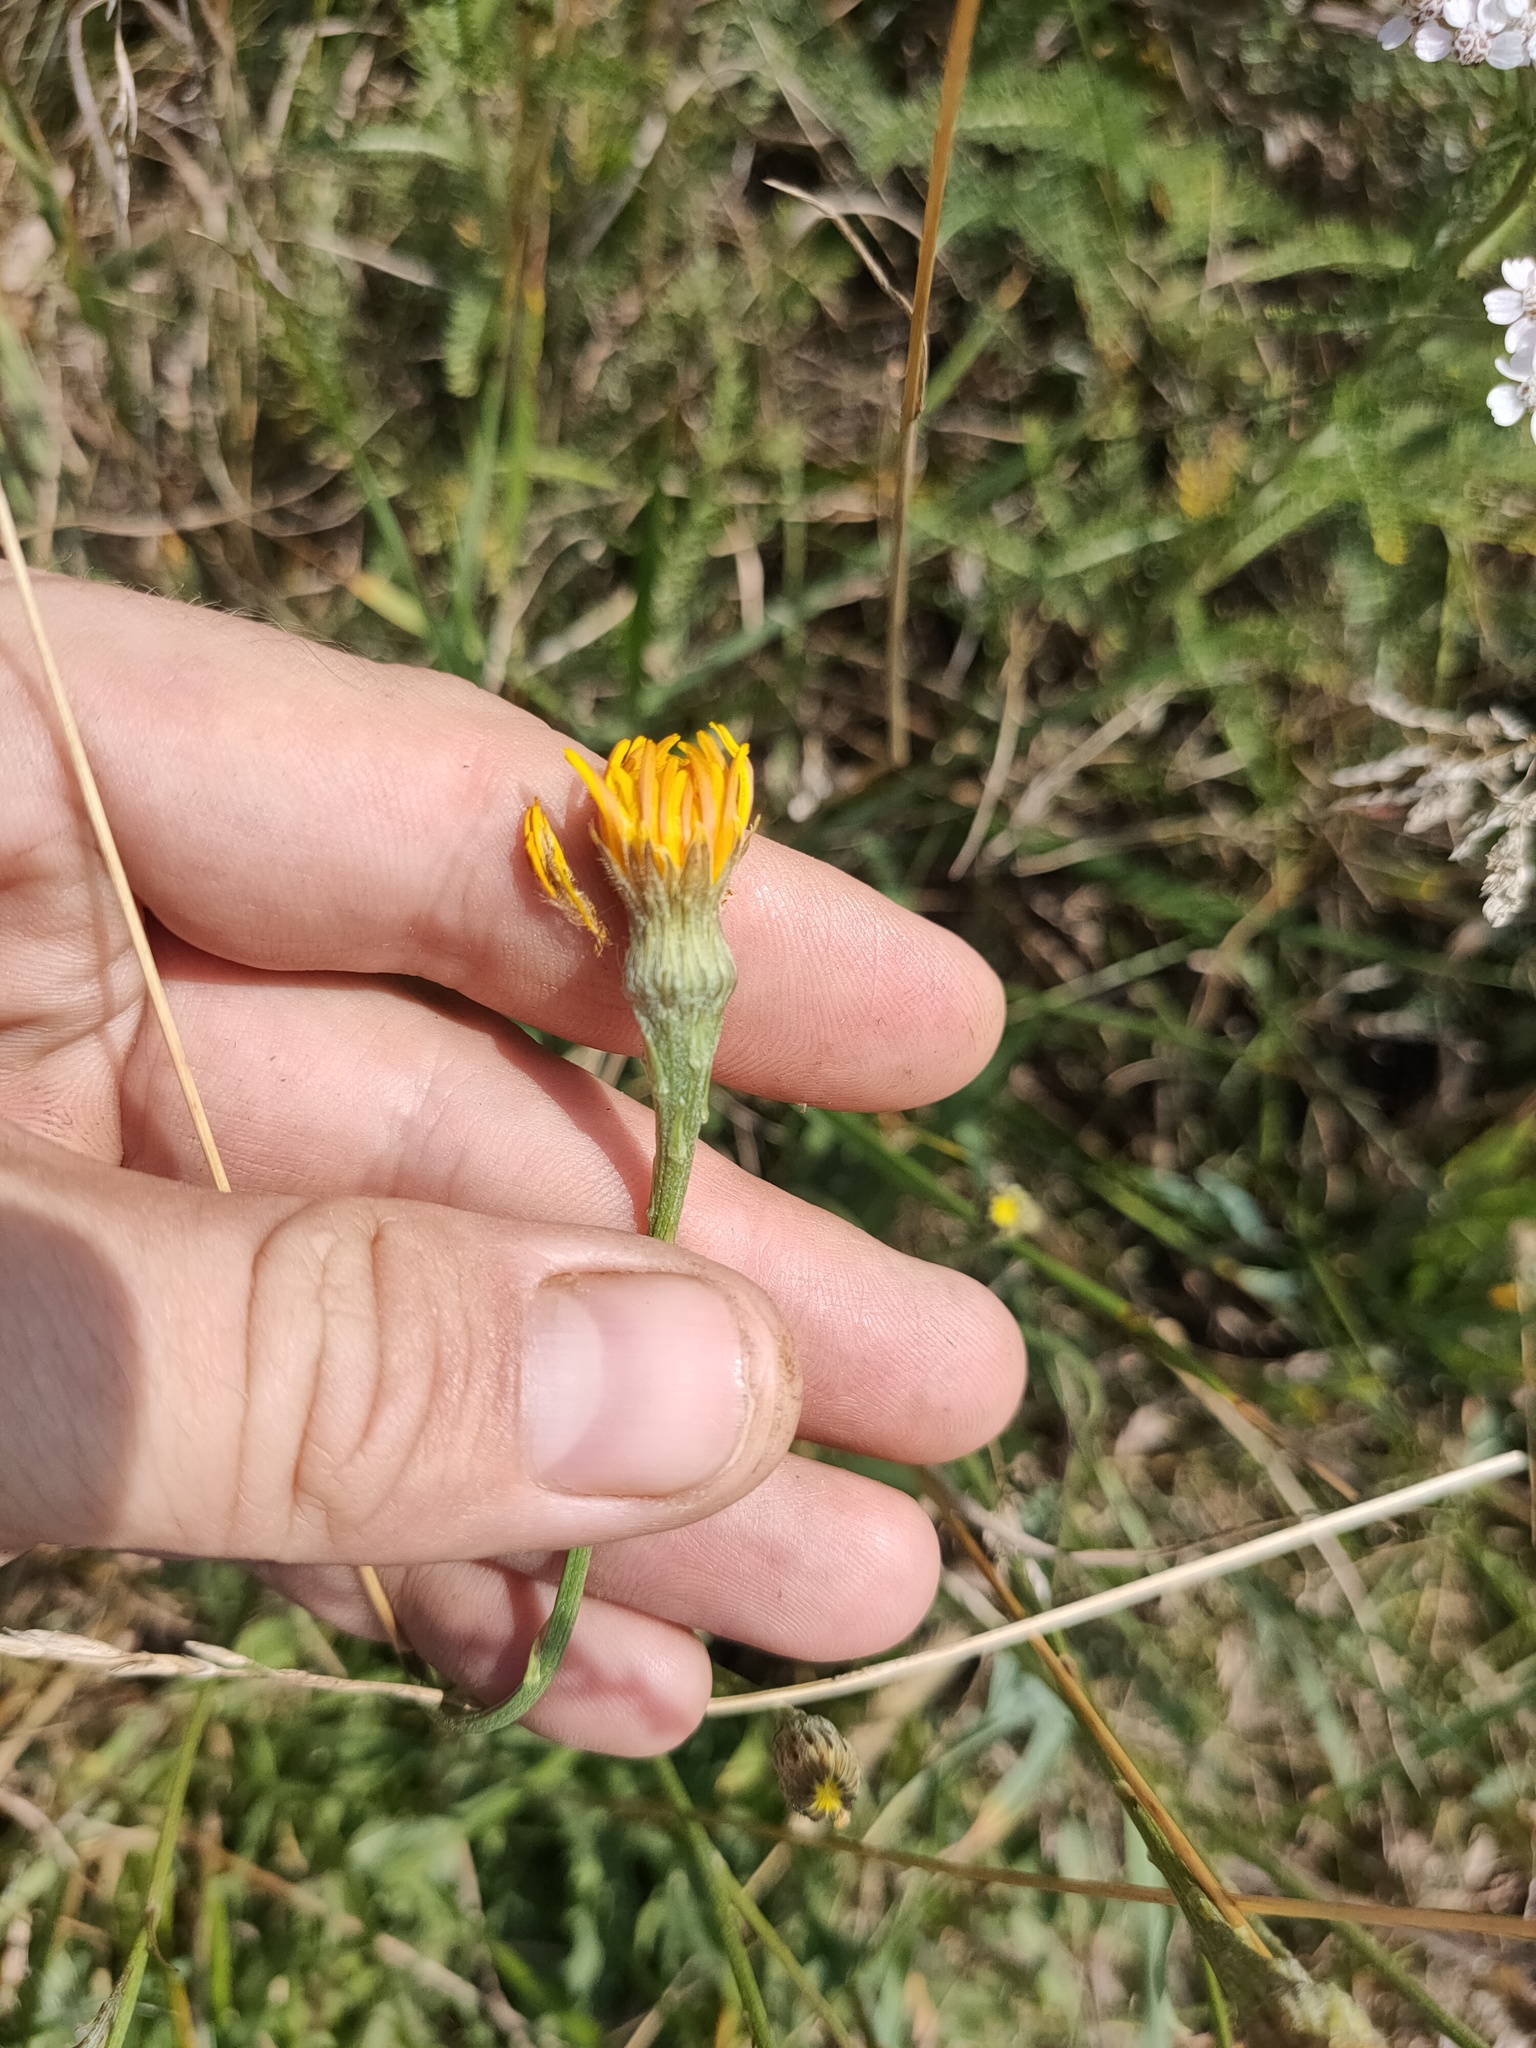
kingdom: Plantae
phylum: Tracheophyta
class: Magnoliopsida
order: Asterales
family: Asteraceae
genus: Scorzoneroides
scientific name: Scorzoneroides autumnalis
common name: Autumn hawkbit
